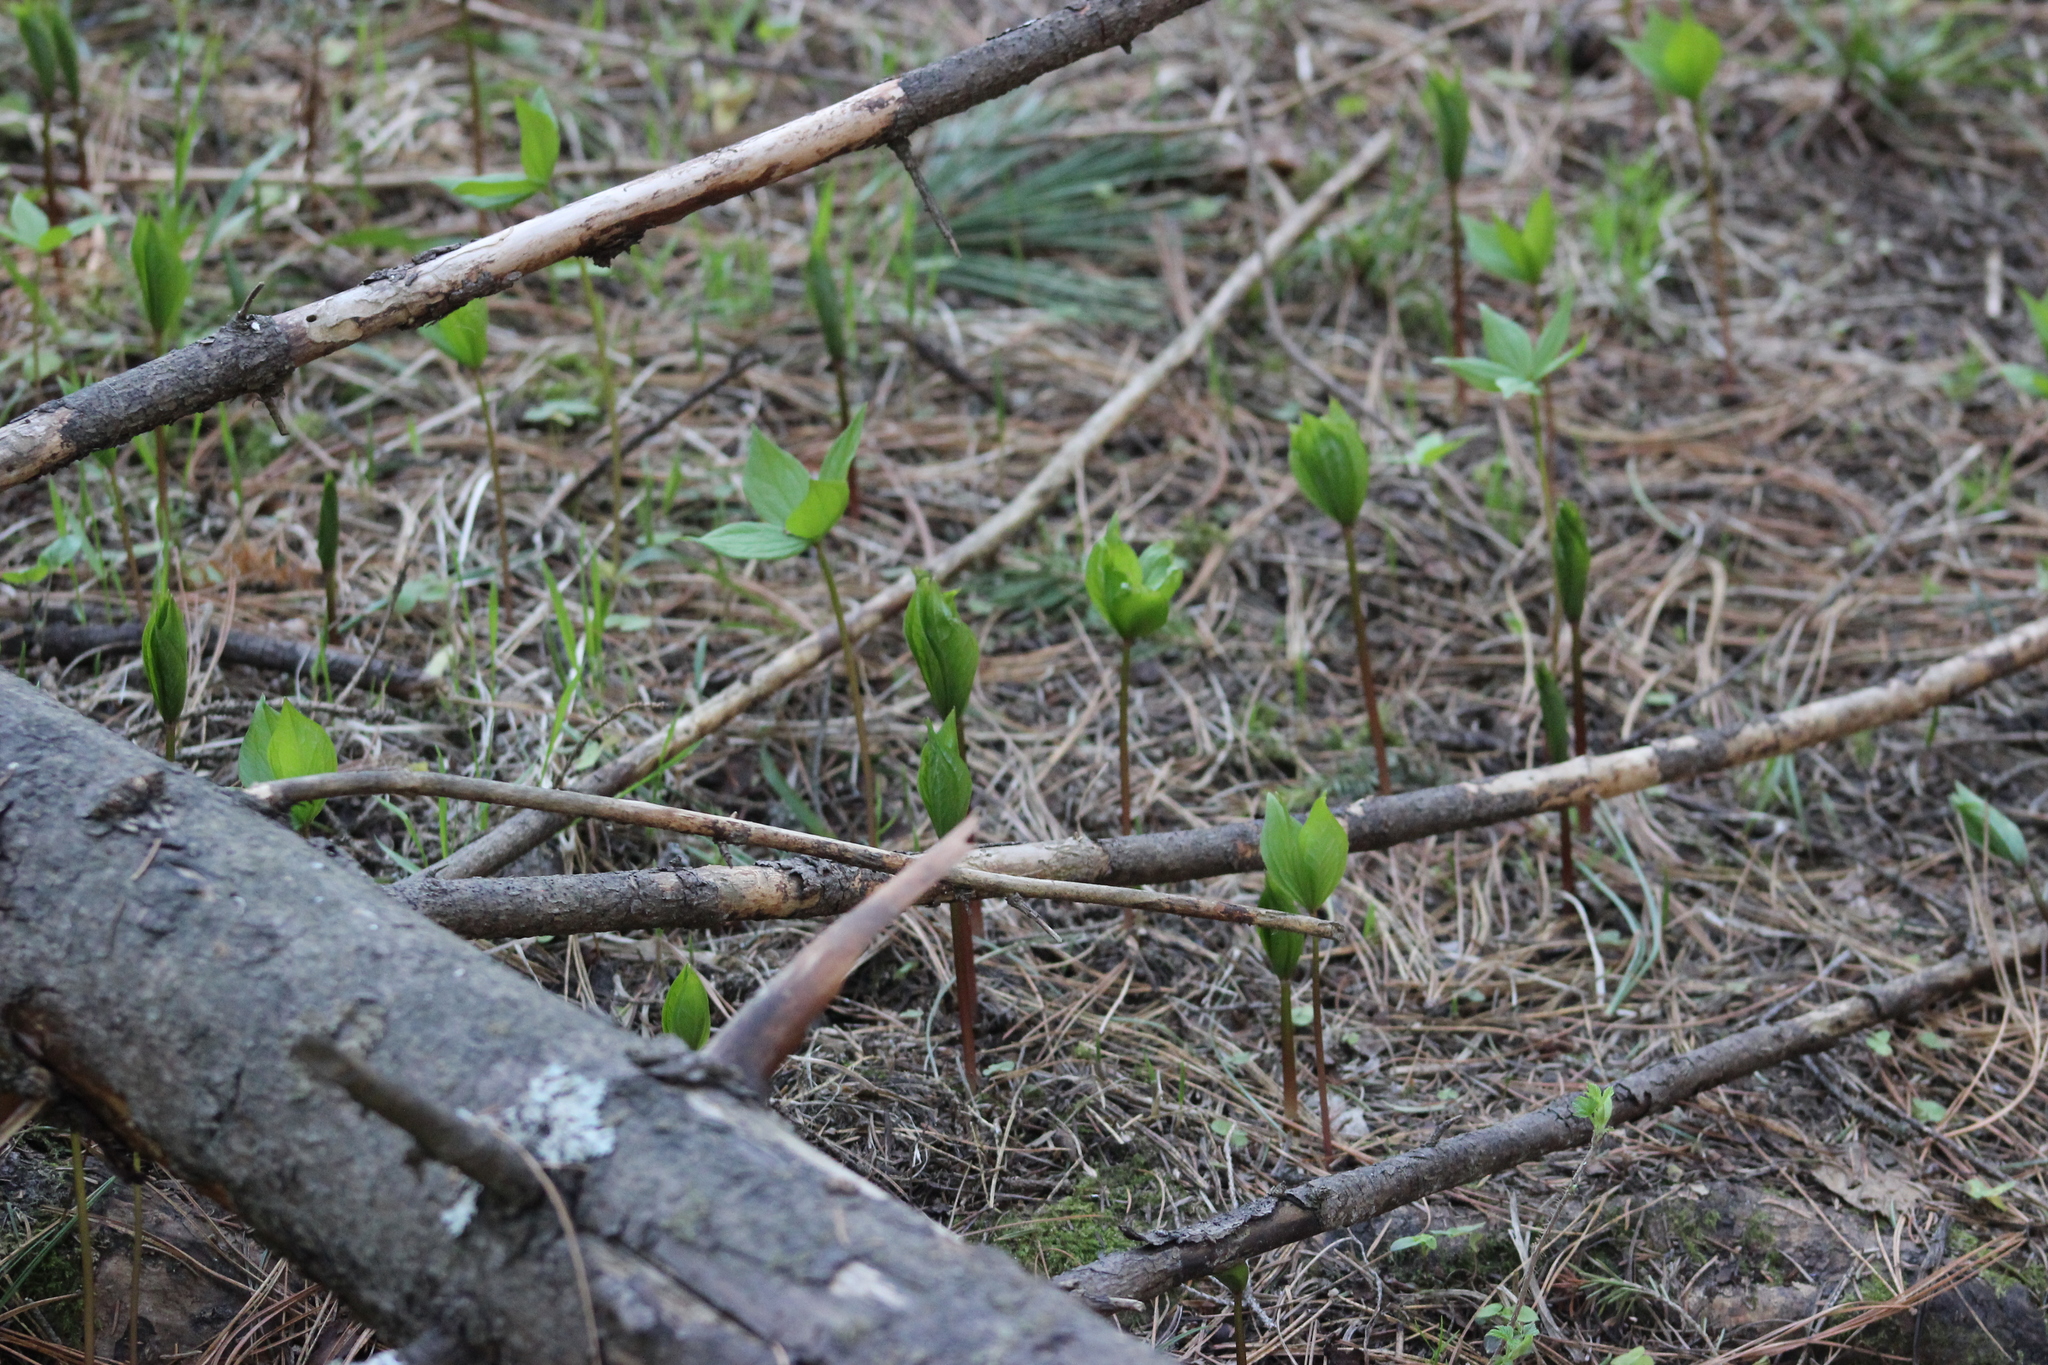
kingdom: Plantae
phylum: Tracheophyta
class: Liliopsida
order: Liliales
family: Melanthiaceae
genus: Paris
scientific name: Paris quadrifolia
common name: Herb-paris
